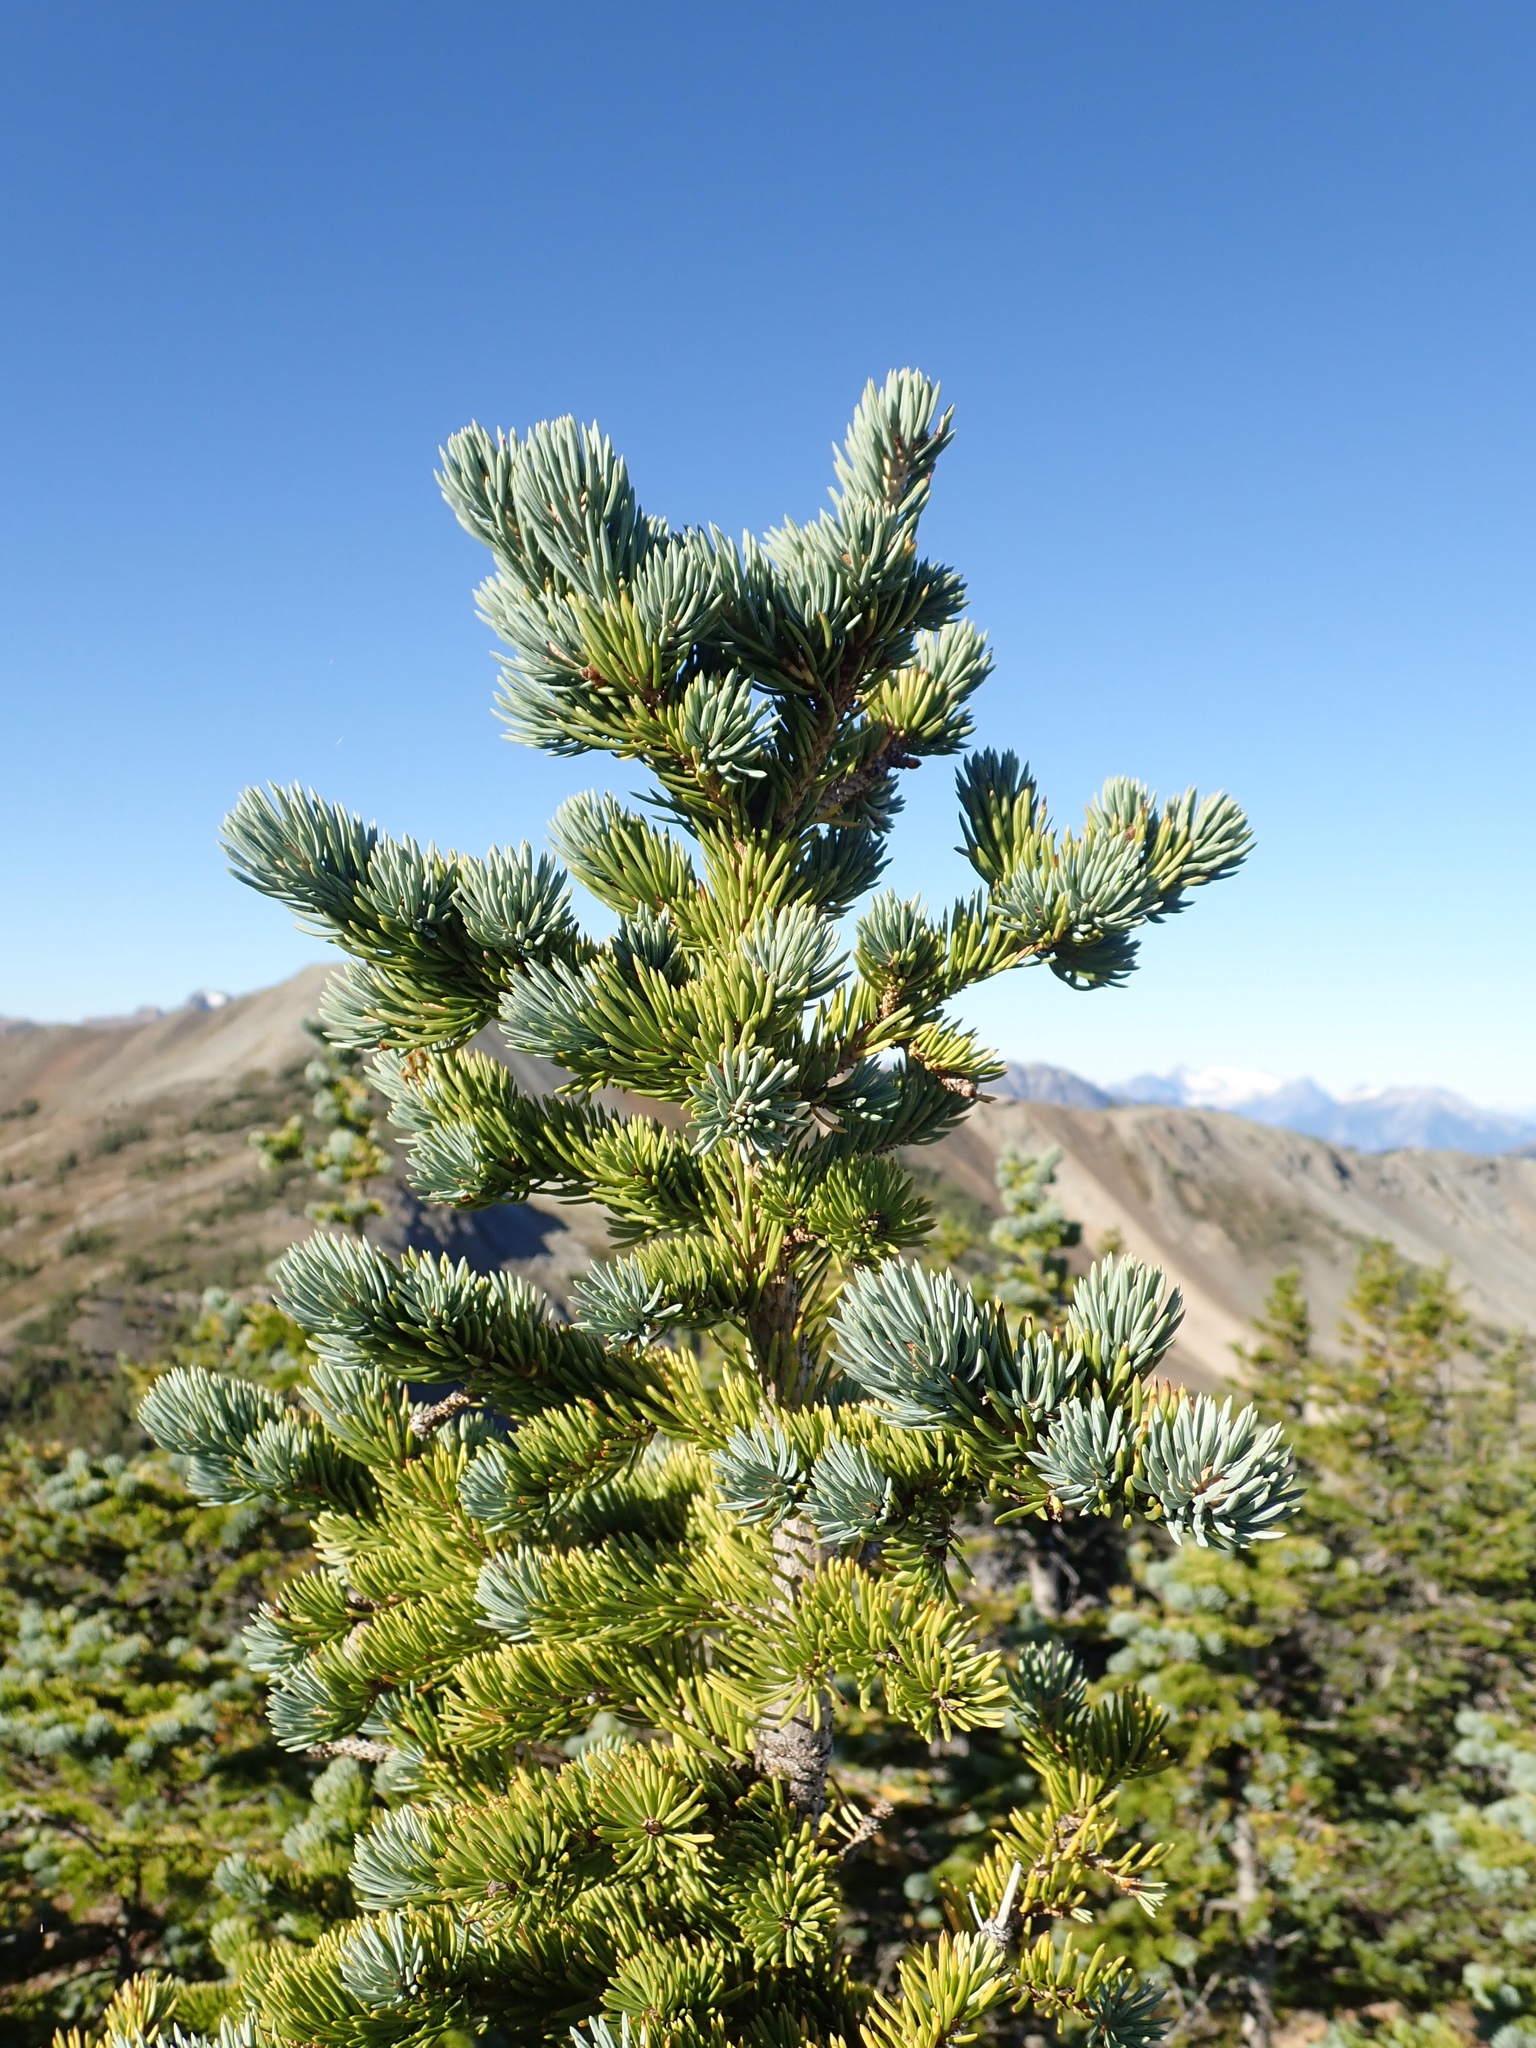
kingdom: Plantae
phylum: Tracheophyta
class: Pinopsida
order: Pinales
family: Pinaceae
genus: Picea
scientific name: Picea engelmannii
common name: Engelmann spruce
